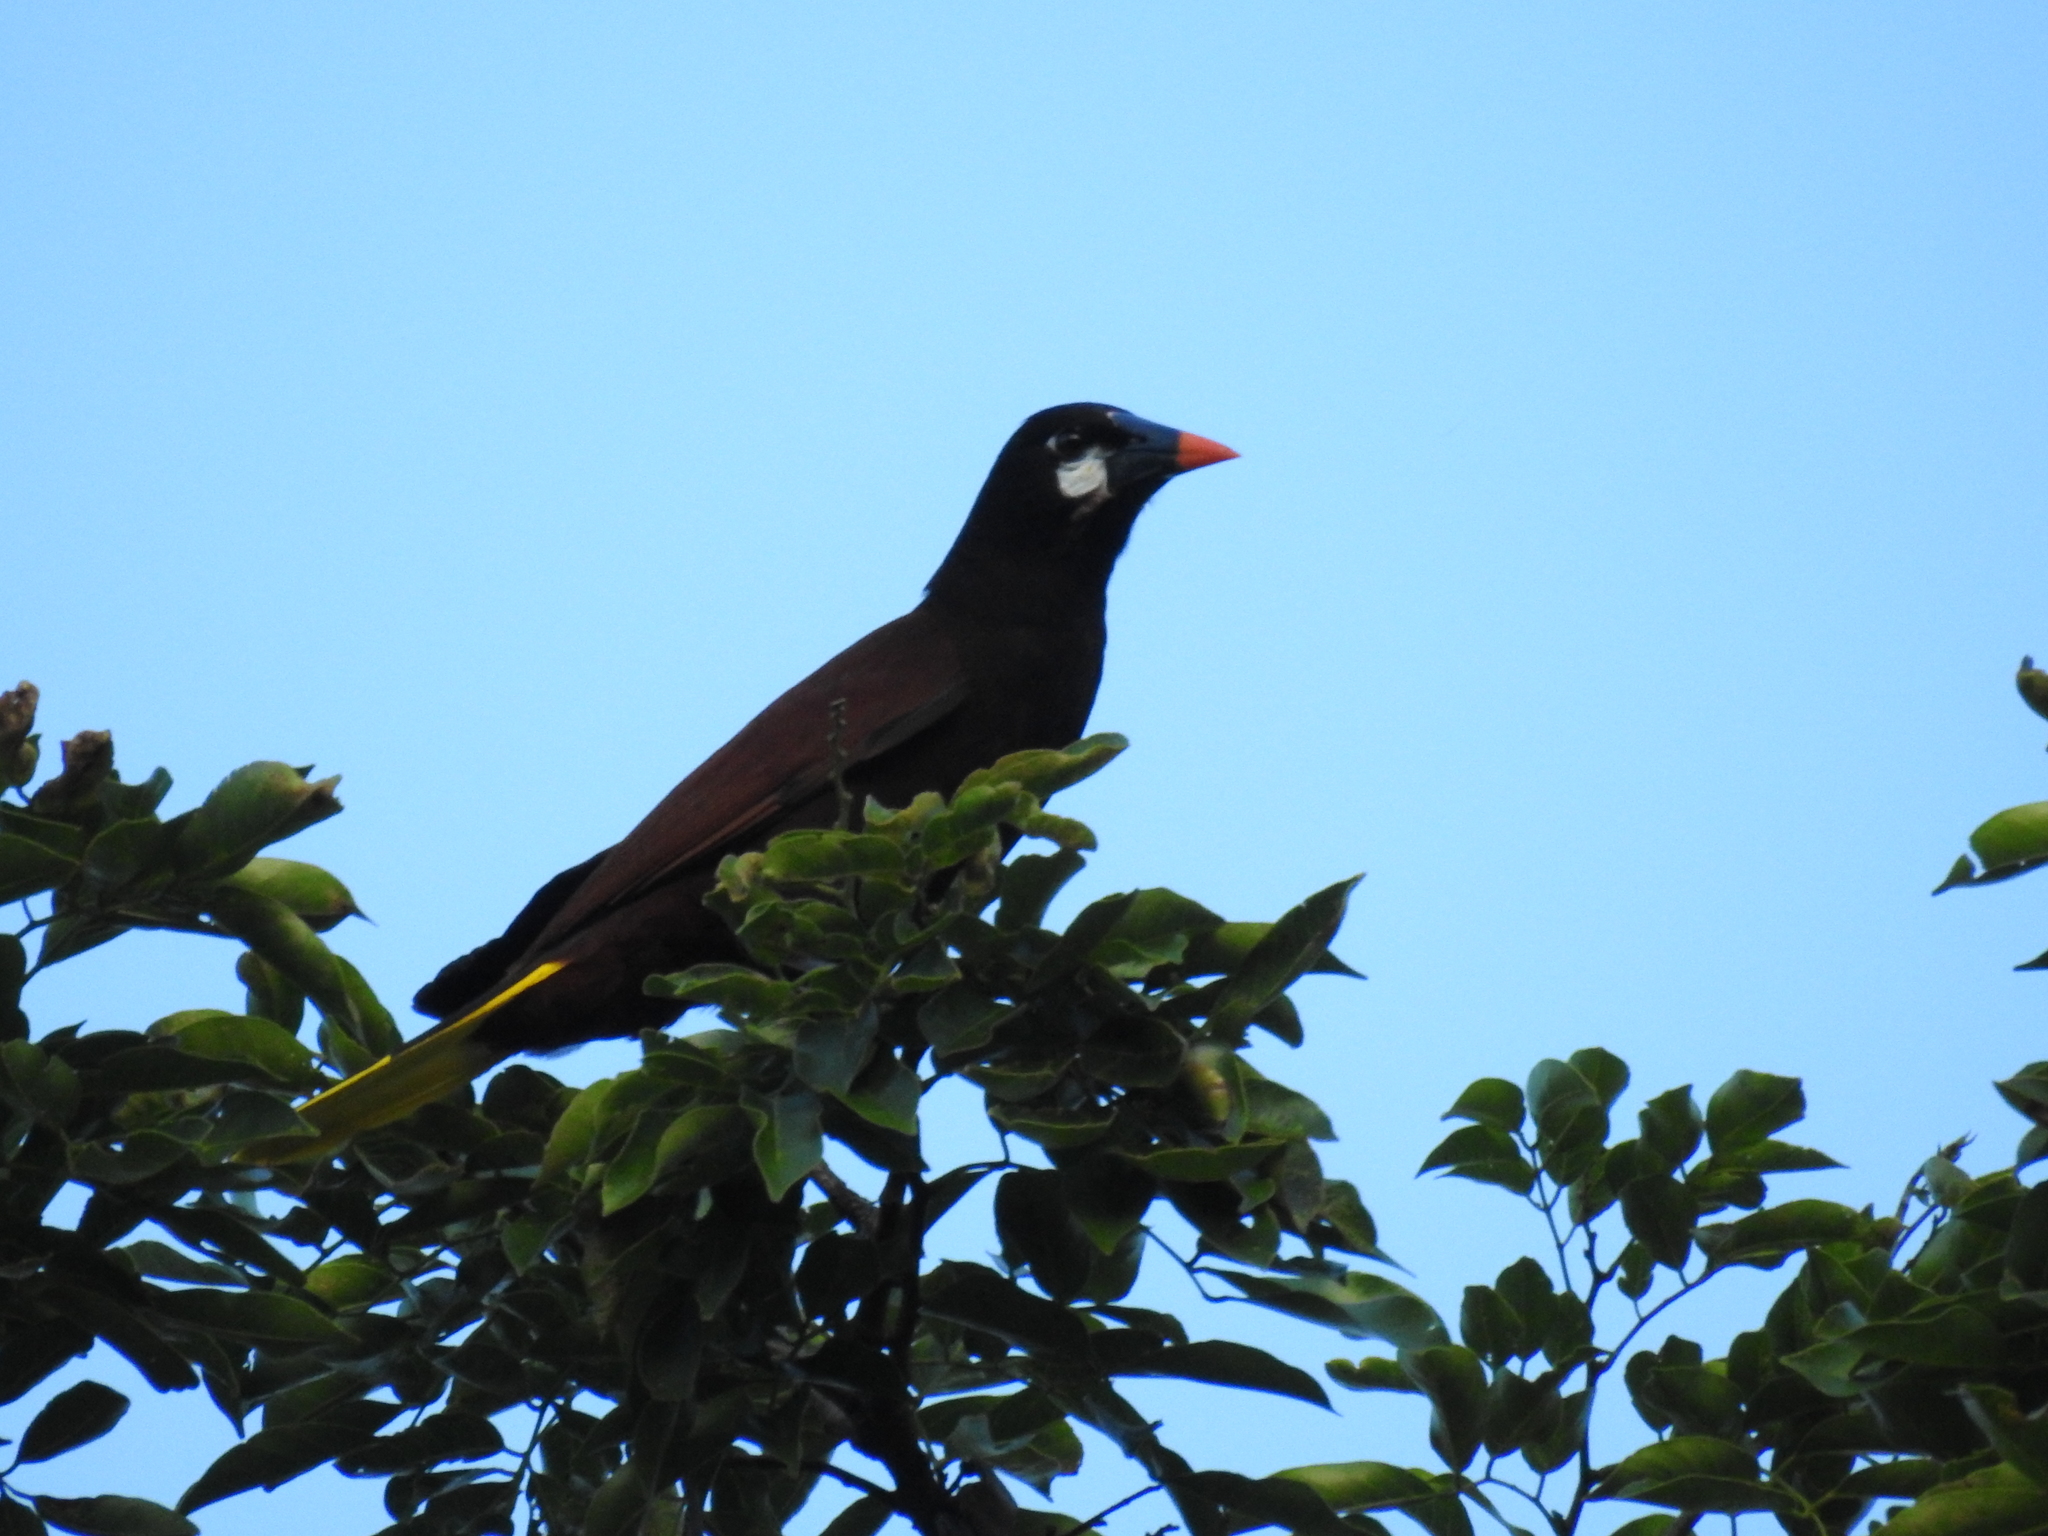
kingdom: Animalia
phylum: Chordata
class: Aves
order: Passeriformes
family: Icteridae
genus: Psarocolius
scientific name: Psarocolius montezuma
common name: Montezuma oropendola
